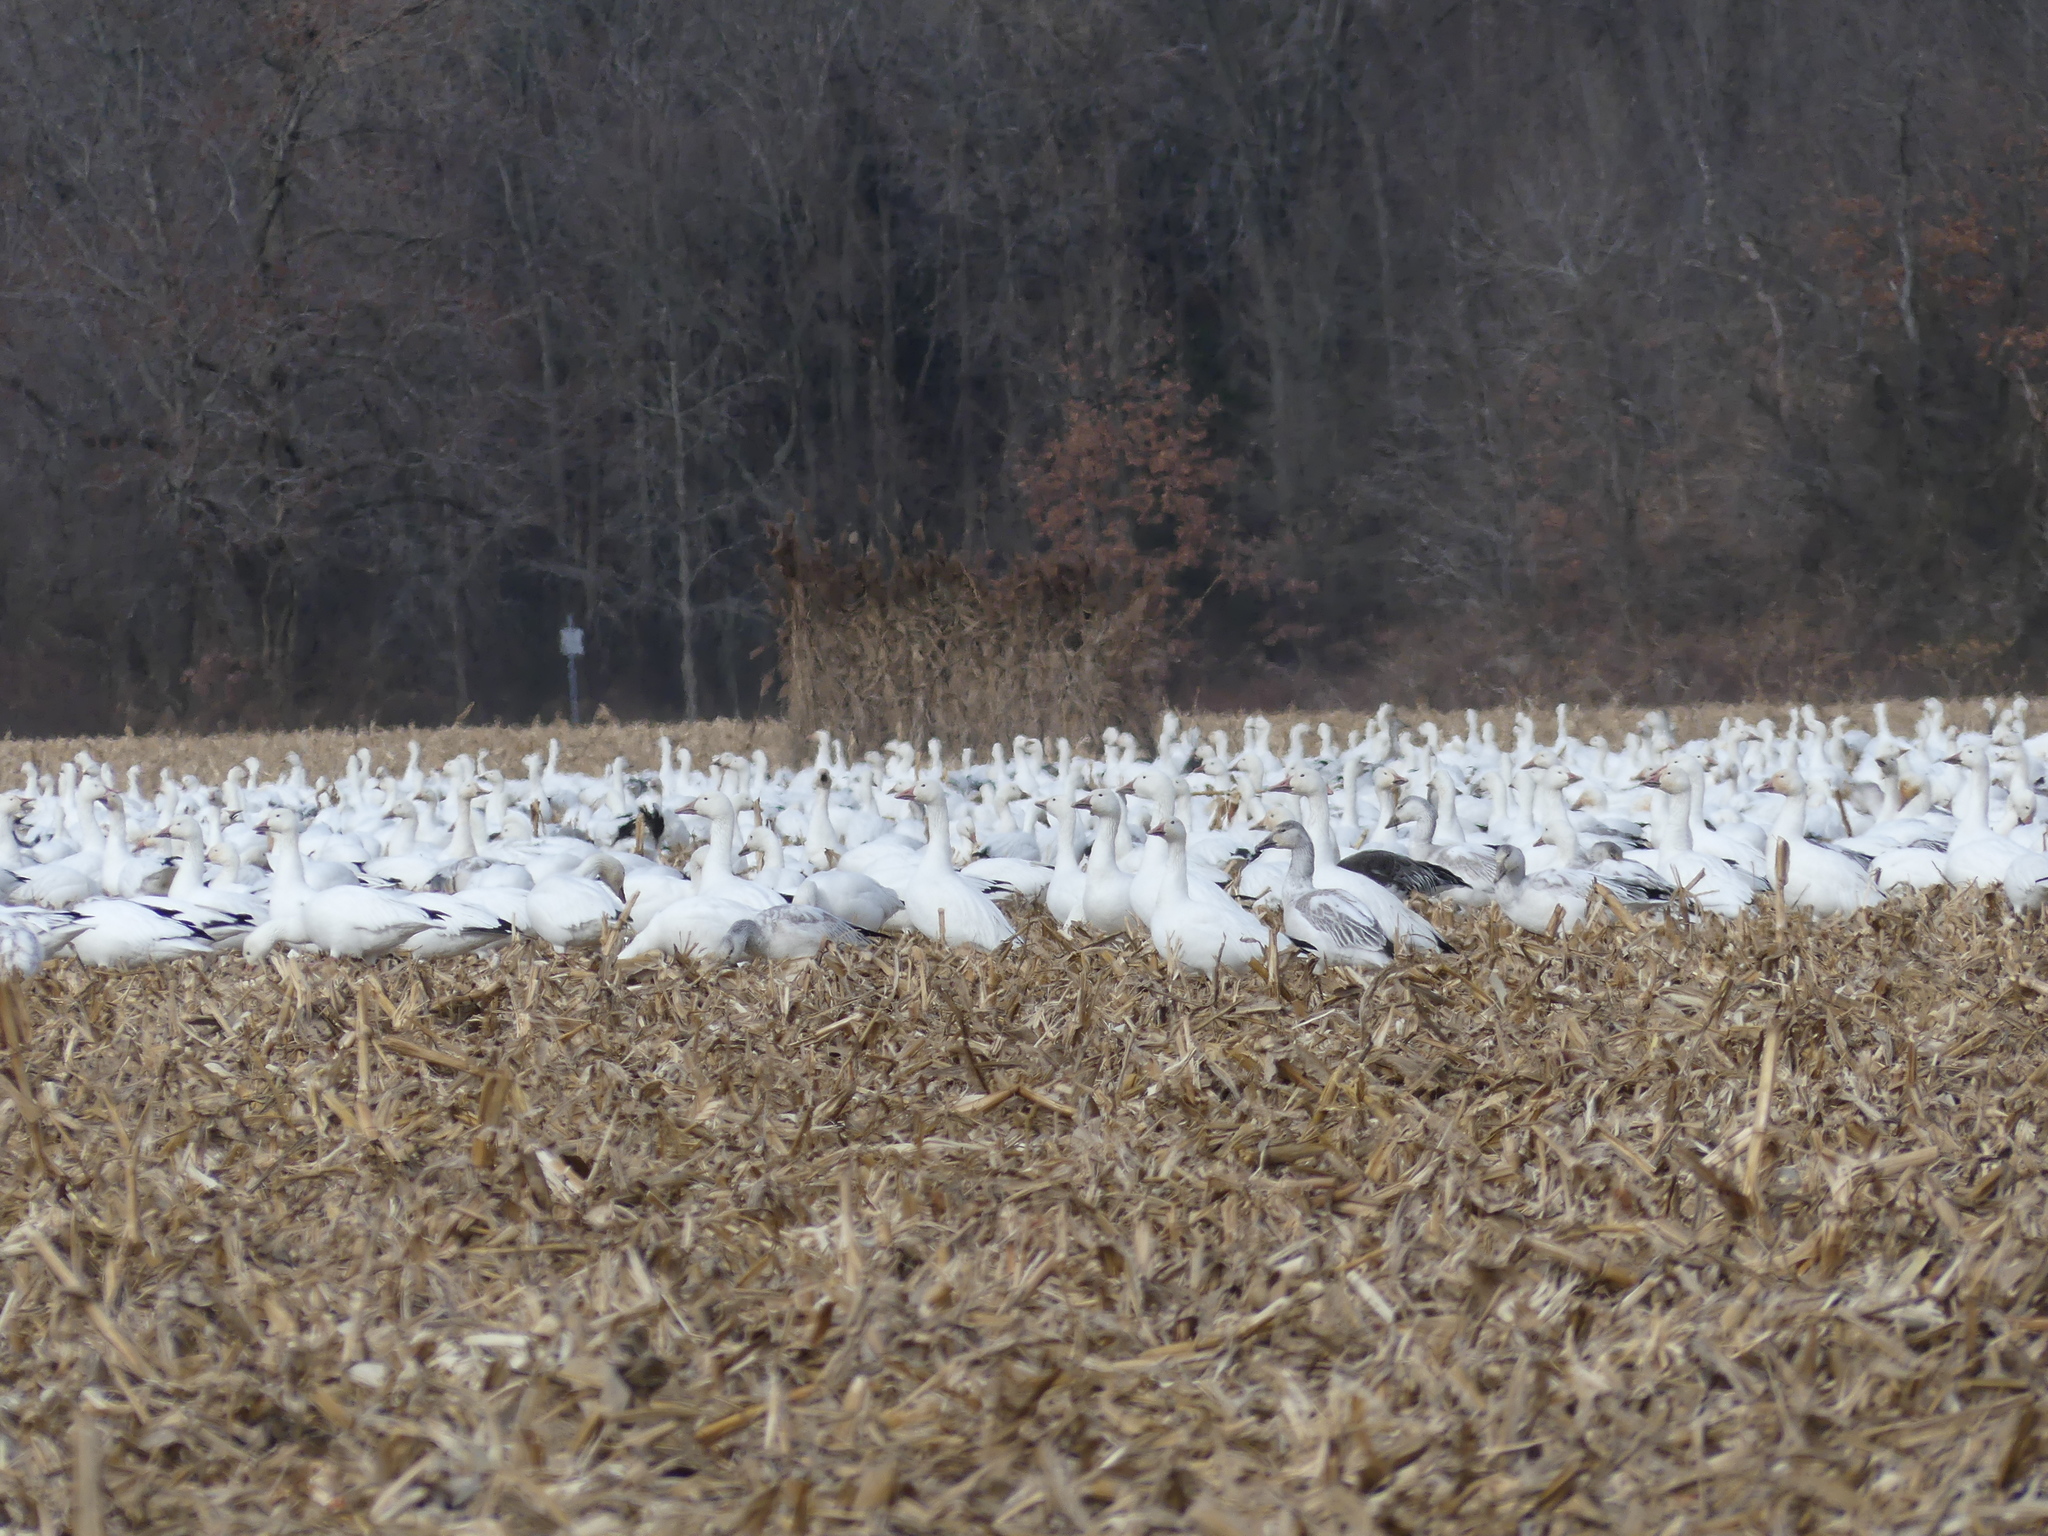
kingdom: Animalia
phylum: Chordata
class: Aves
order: Anseriformes
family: Anatidae
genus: Anser
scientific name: Anser caerulescens
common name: Snow goose
